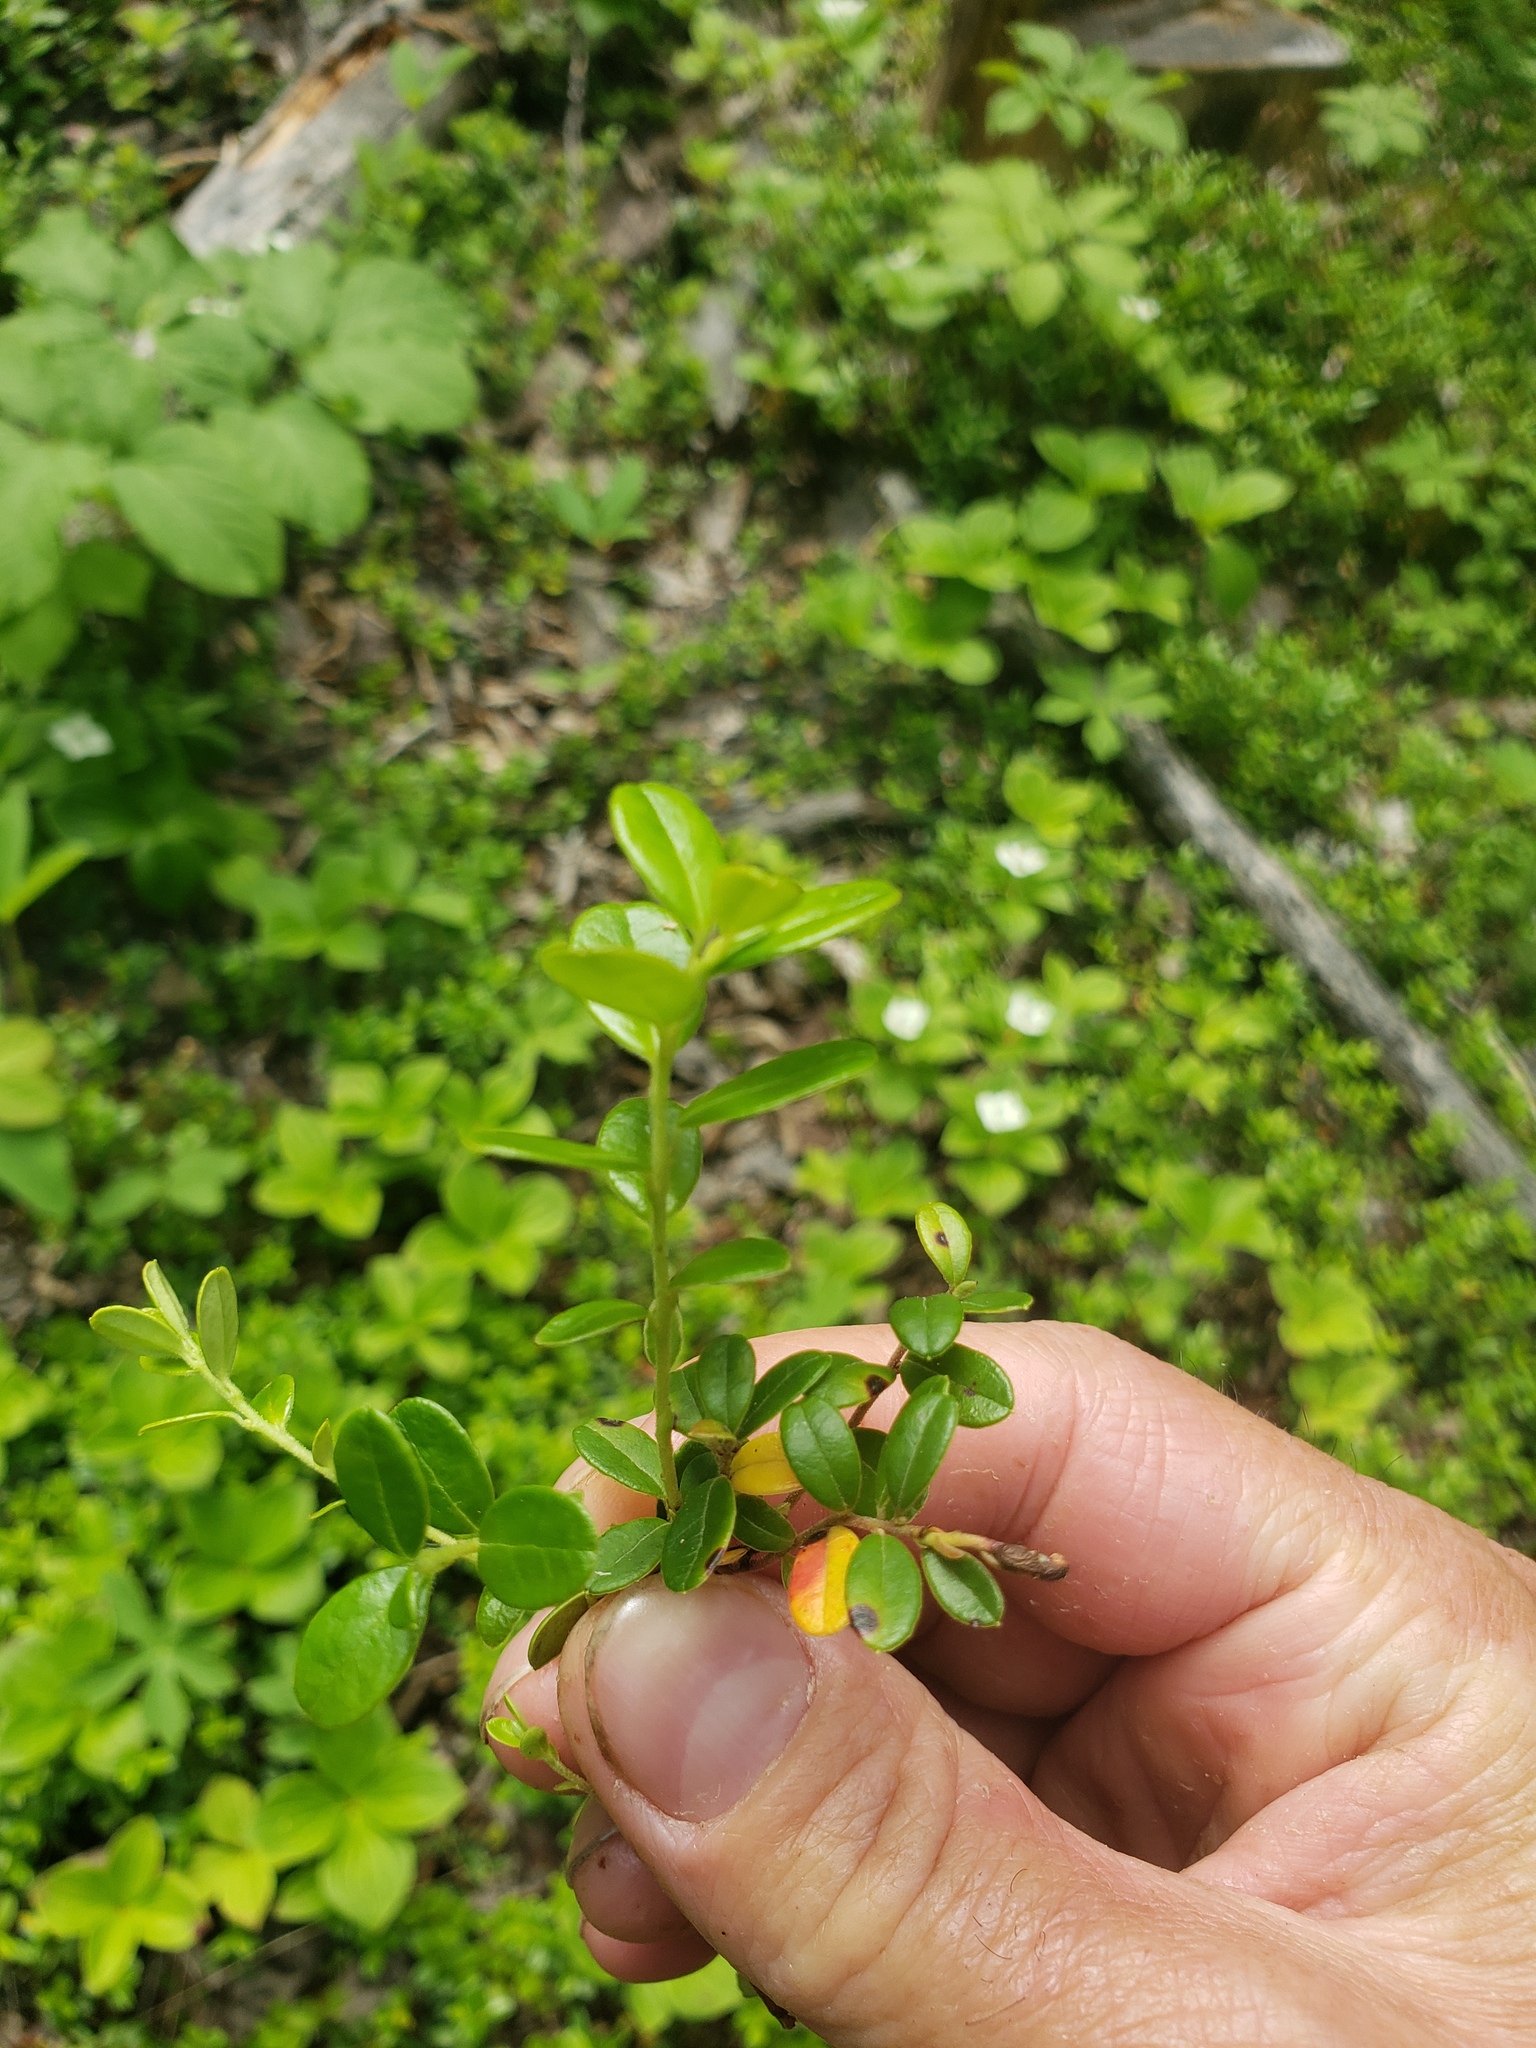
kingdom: Plantae
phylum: Tracheophyta
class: Magnoliopsida
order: Ericales
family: Ericaceae
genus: Vaccinium
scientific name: Vaccinium vitis-idaea
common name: Cowberry
